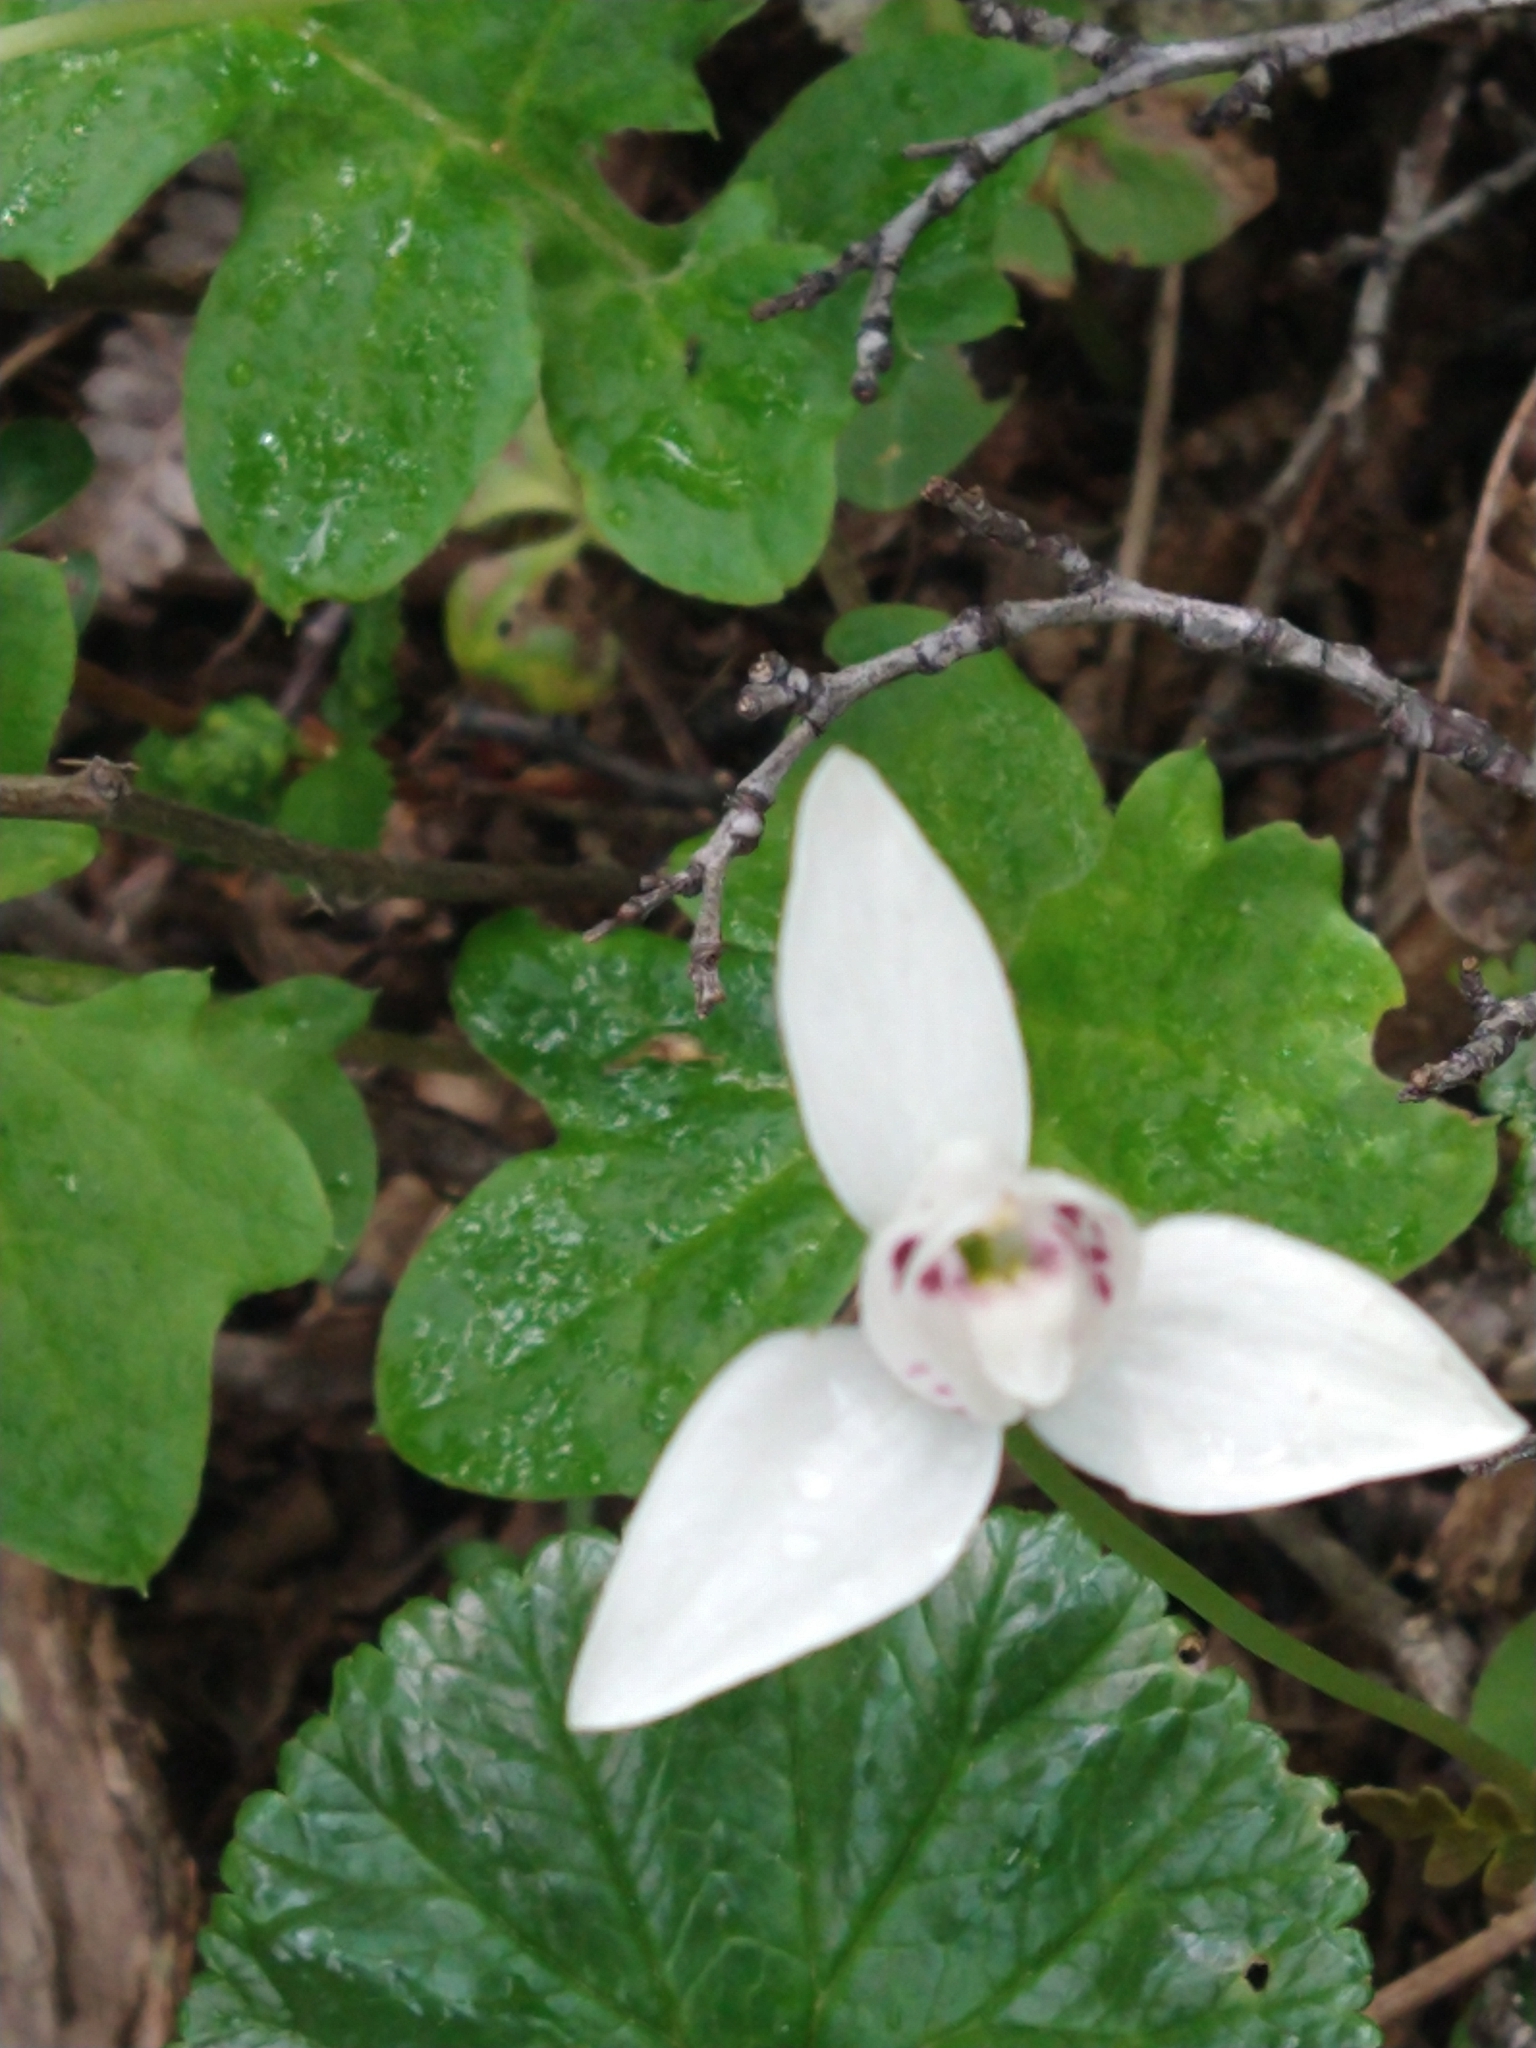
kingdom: Plantae
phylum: Tracheophyta
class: Liliopsida
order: Asparagales
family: Orchidaceae
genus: Codonorchis
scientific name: Codonorchis lessonii
